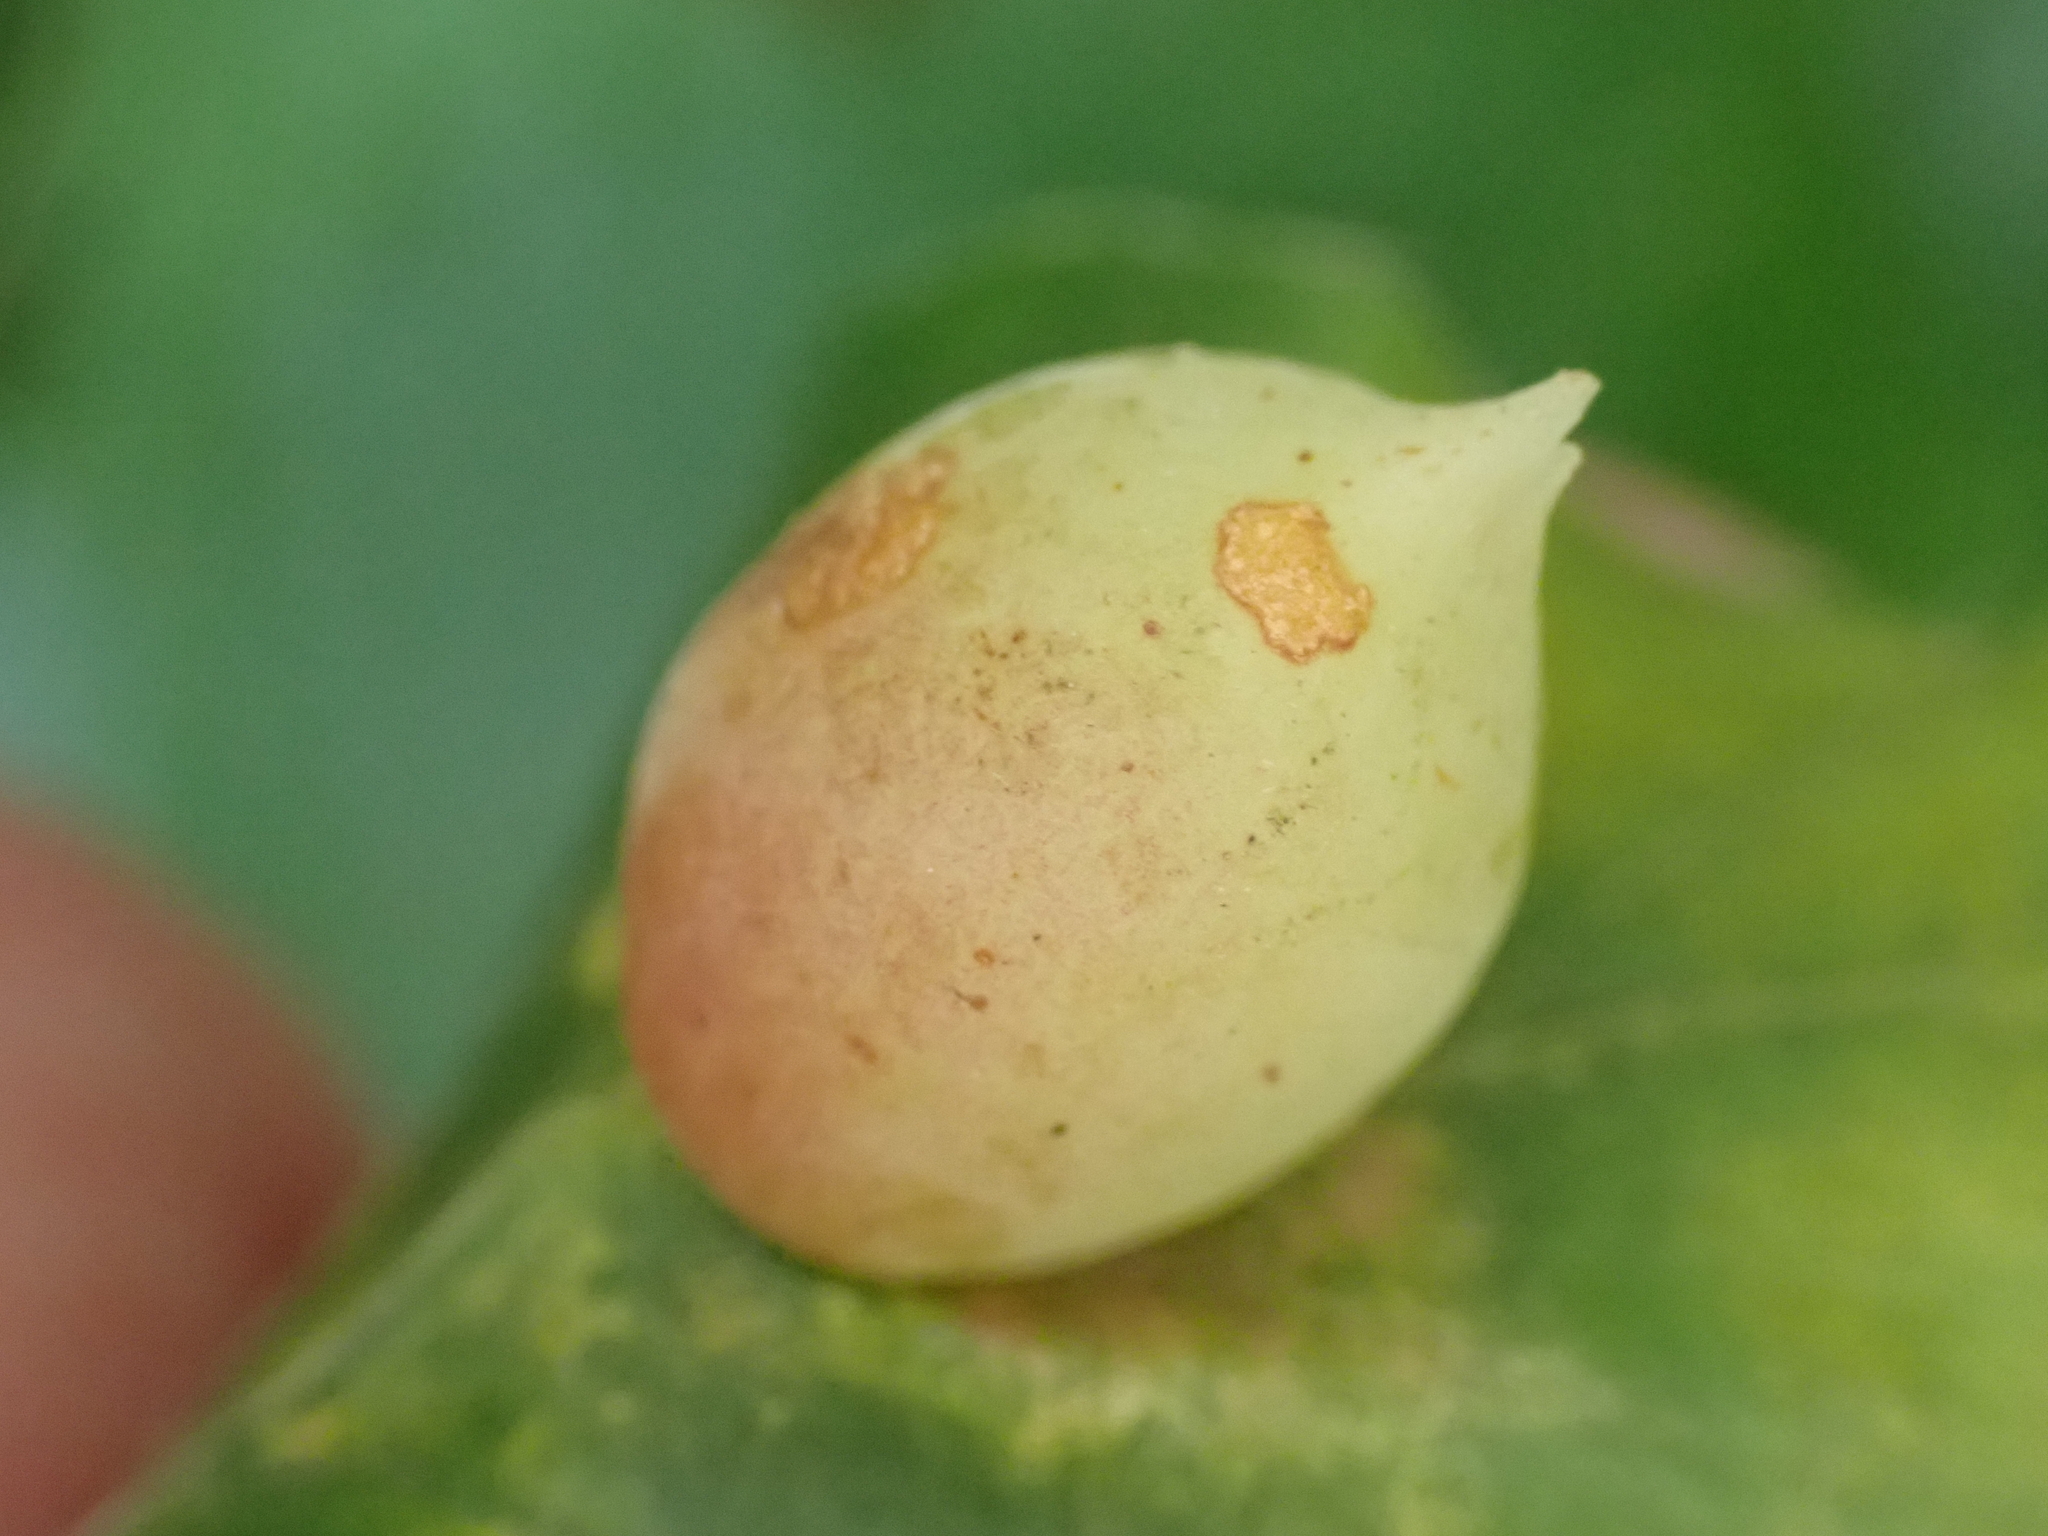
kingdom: Animalia
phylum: Arthropoda
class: Insecta
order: Diptera
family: Cecidomyiidae
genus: Mikiola
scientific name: Mikiola fagi
